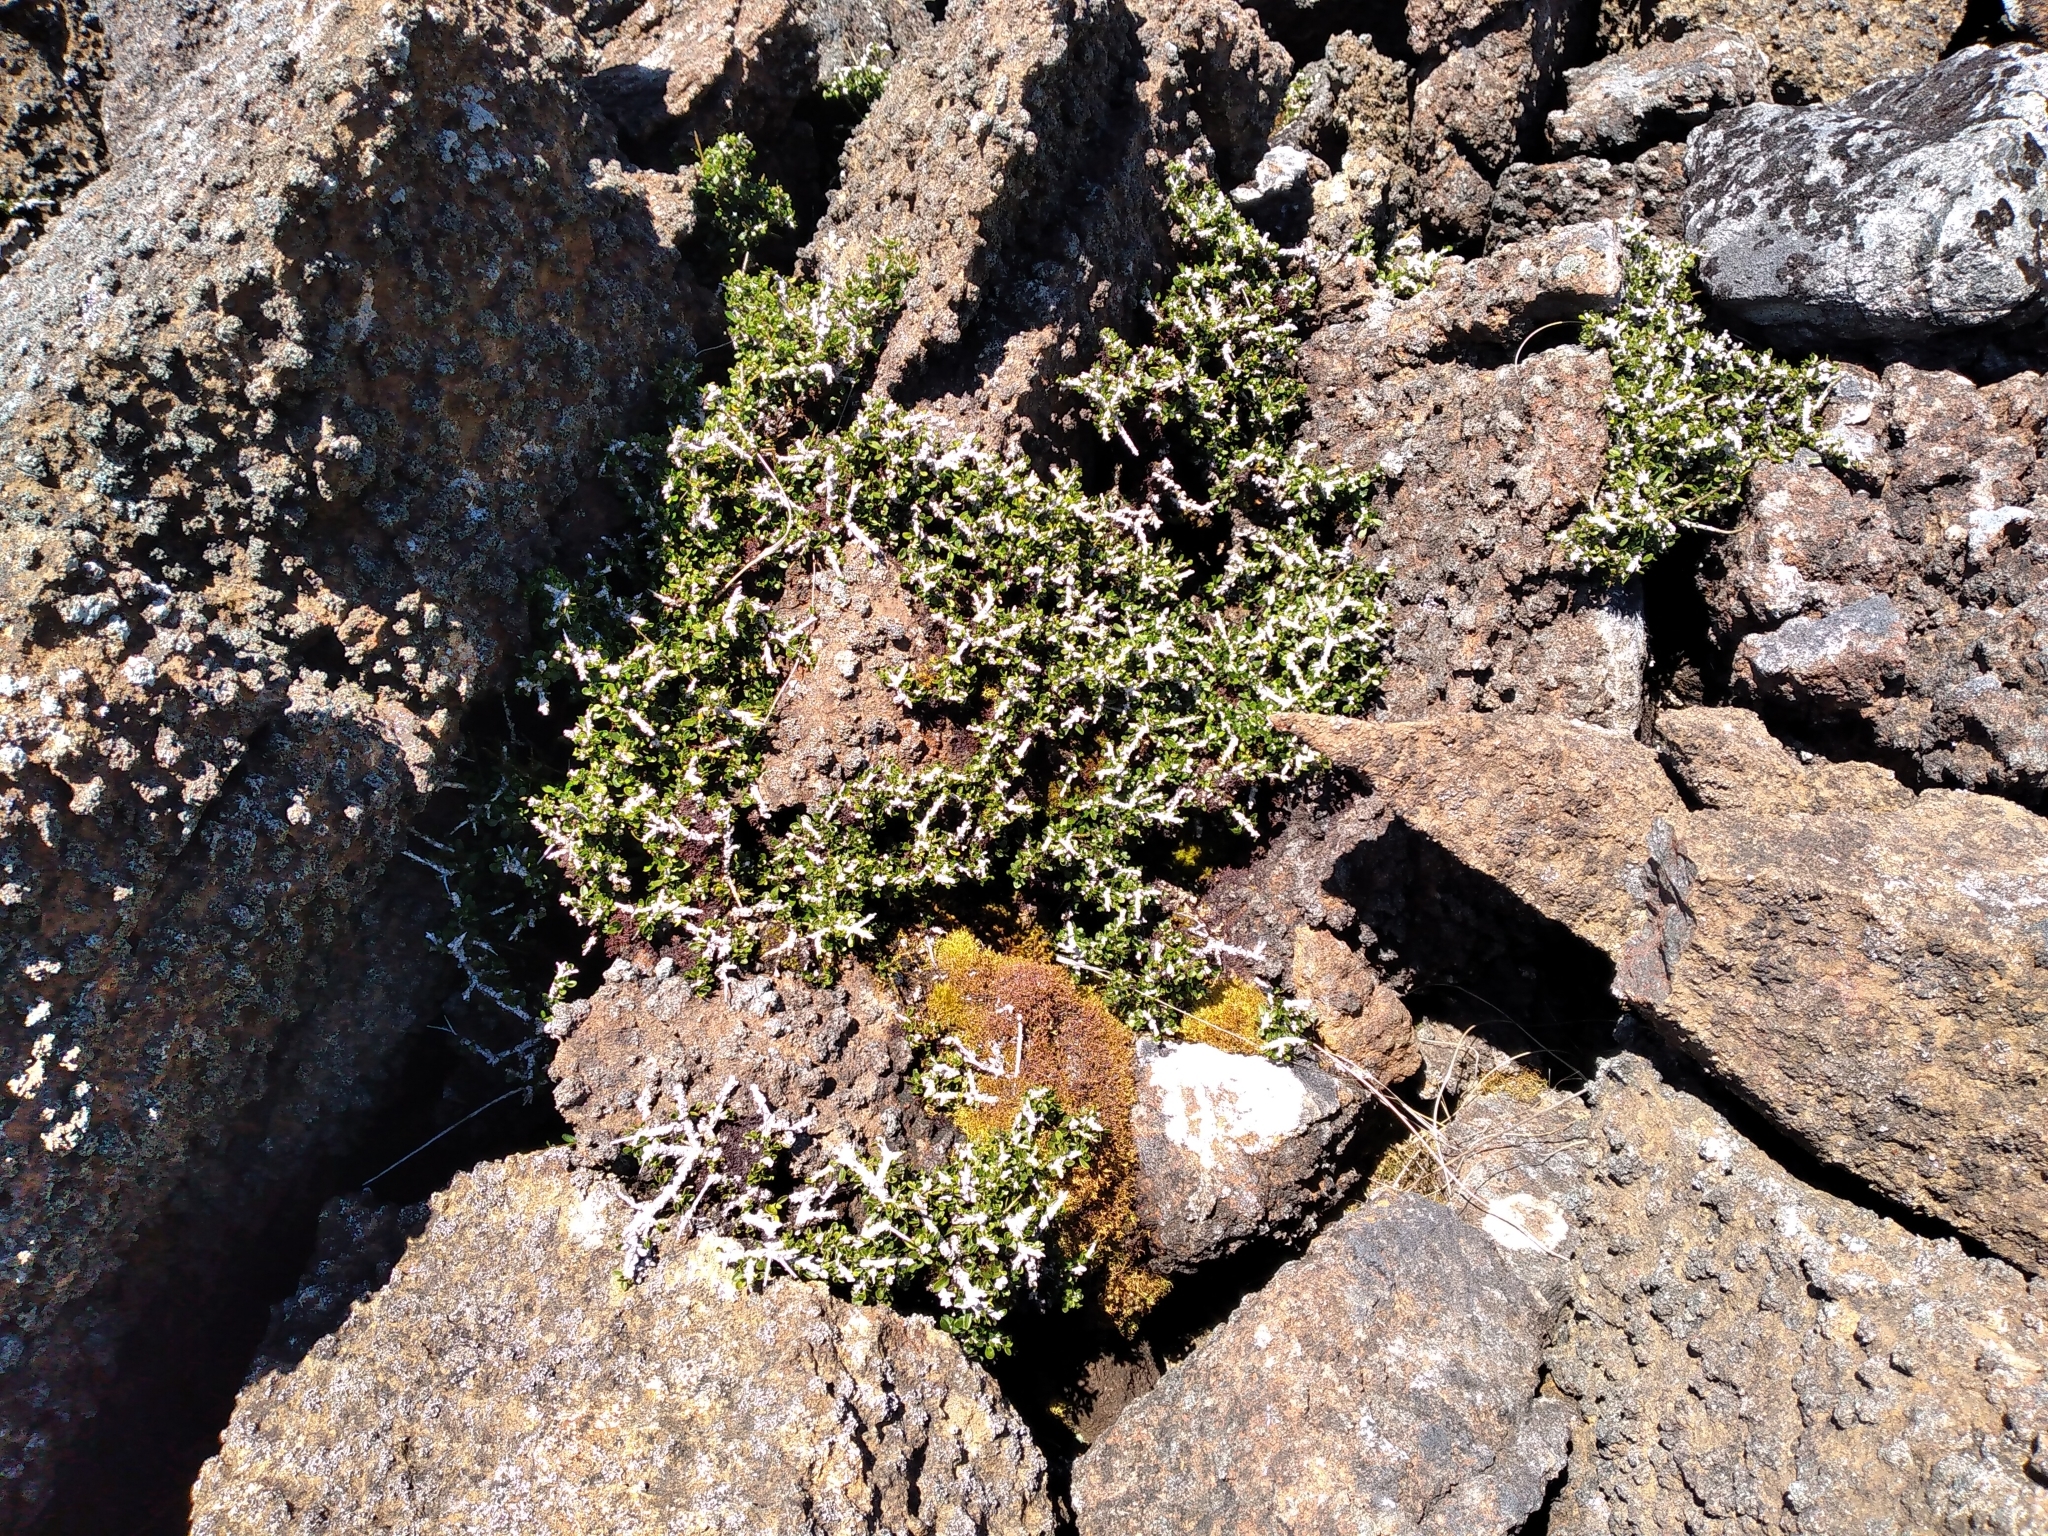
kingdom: Plantae
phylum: Tracheophyta
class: Magnoliopsida
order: Malpighiales
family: Violaceae
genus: Melicytus
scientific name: Melicytus alpinus
